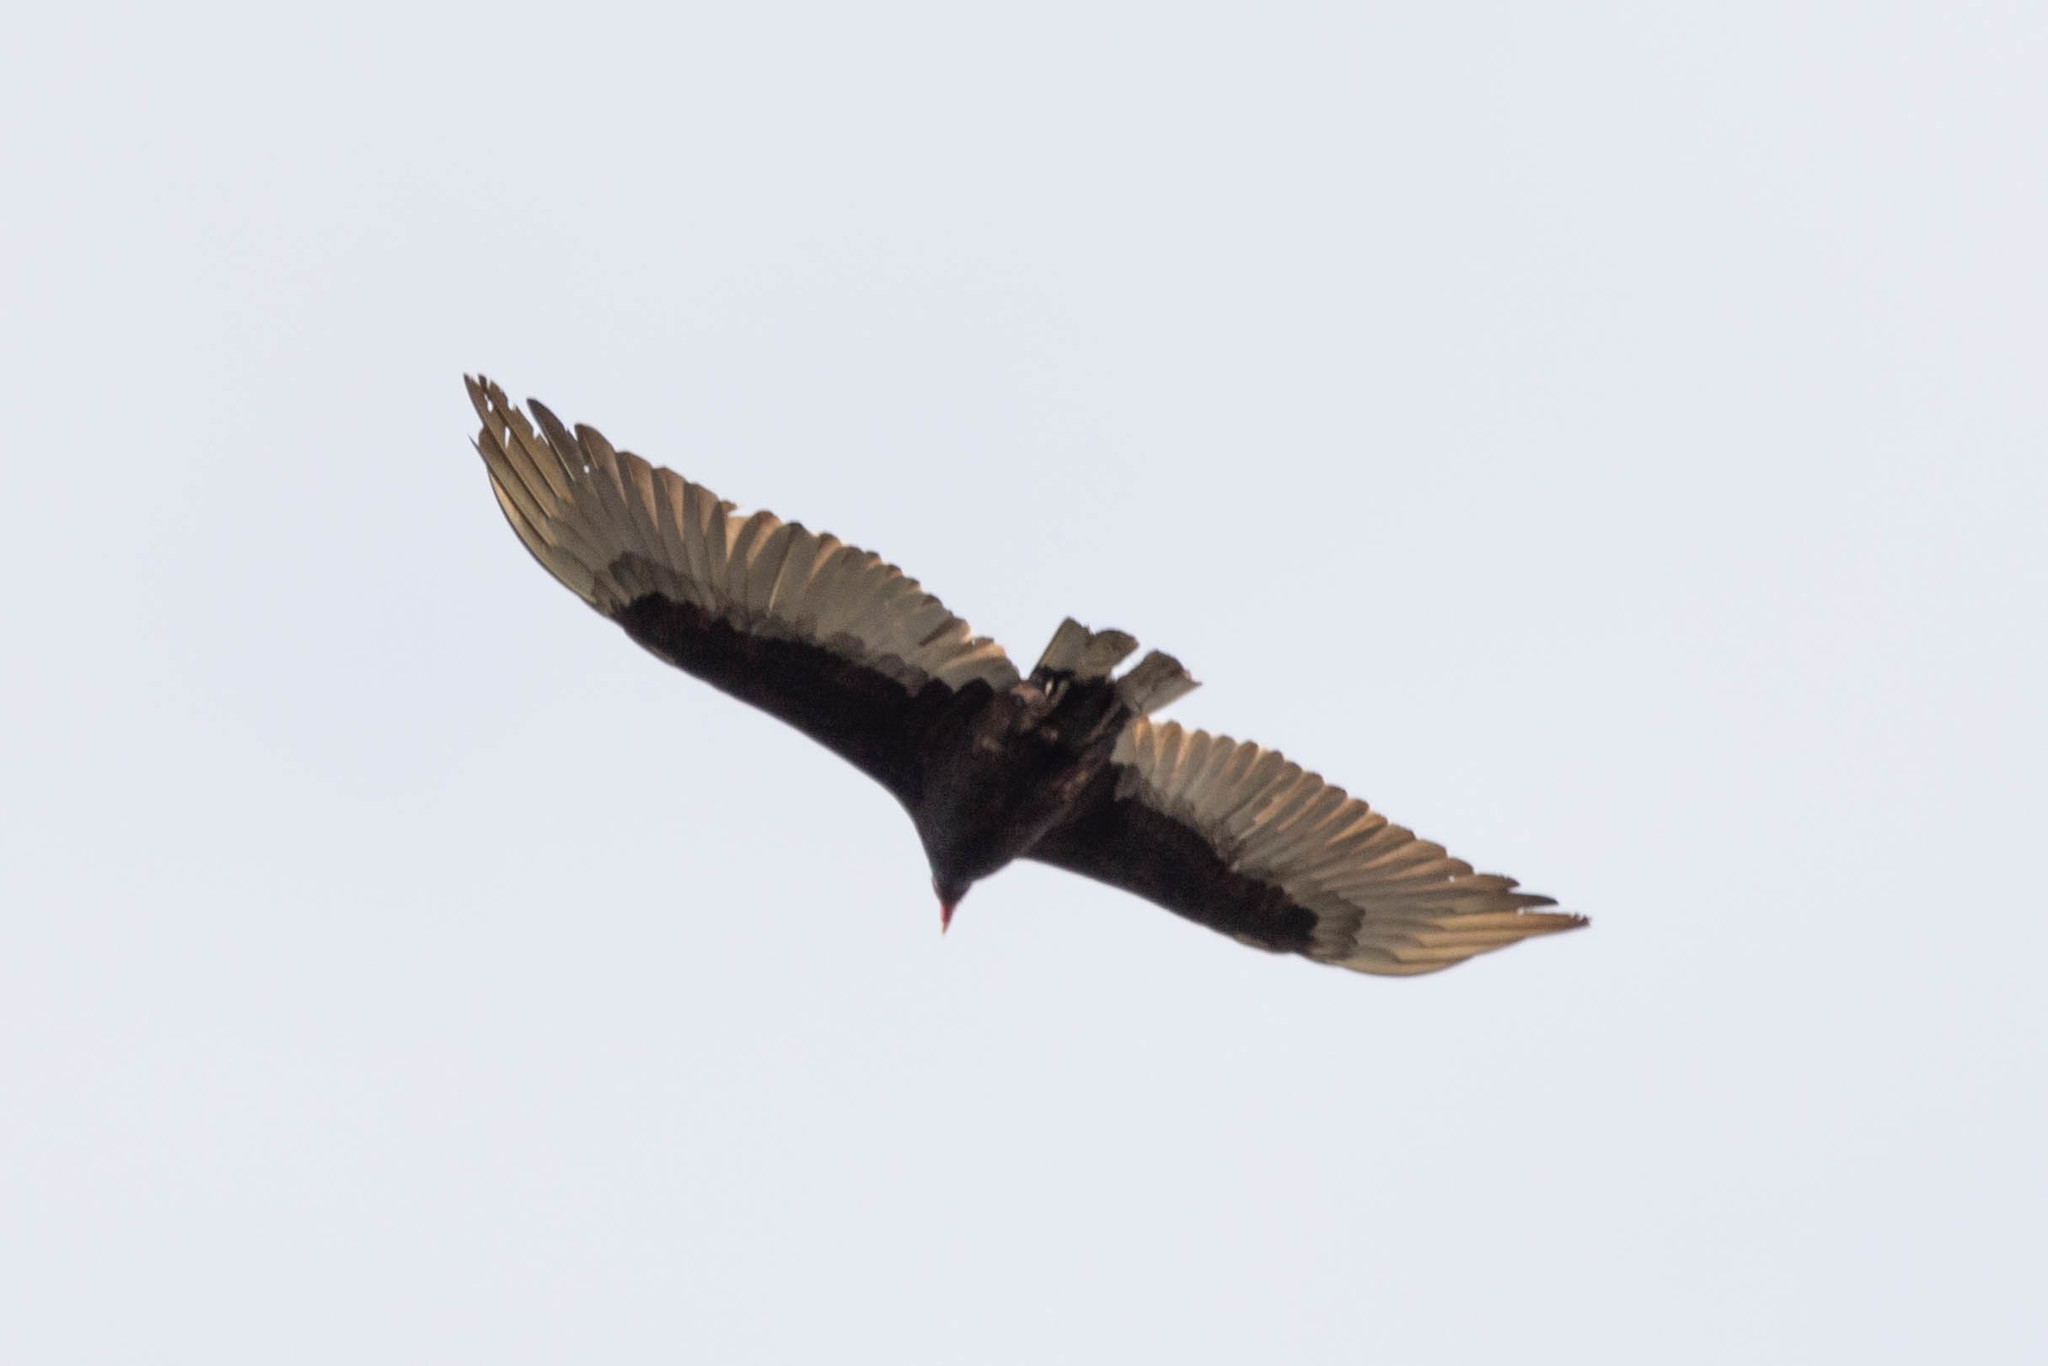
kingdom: Animalia
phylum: Chordata
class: Aves
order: Accipitriformes
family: Cathartidae
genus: Cathartes
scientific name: Cathartes aura
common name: Turkey vulture
